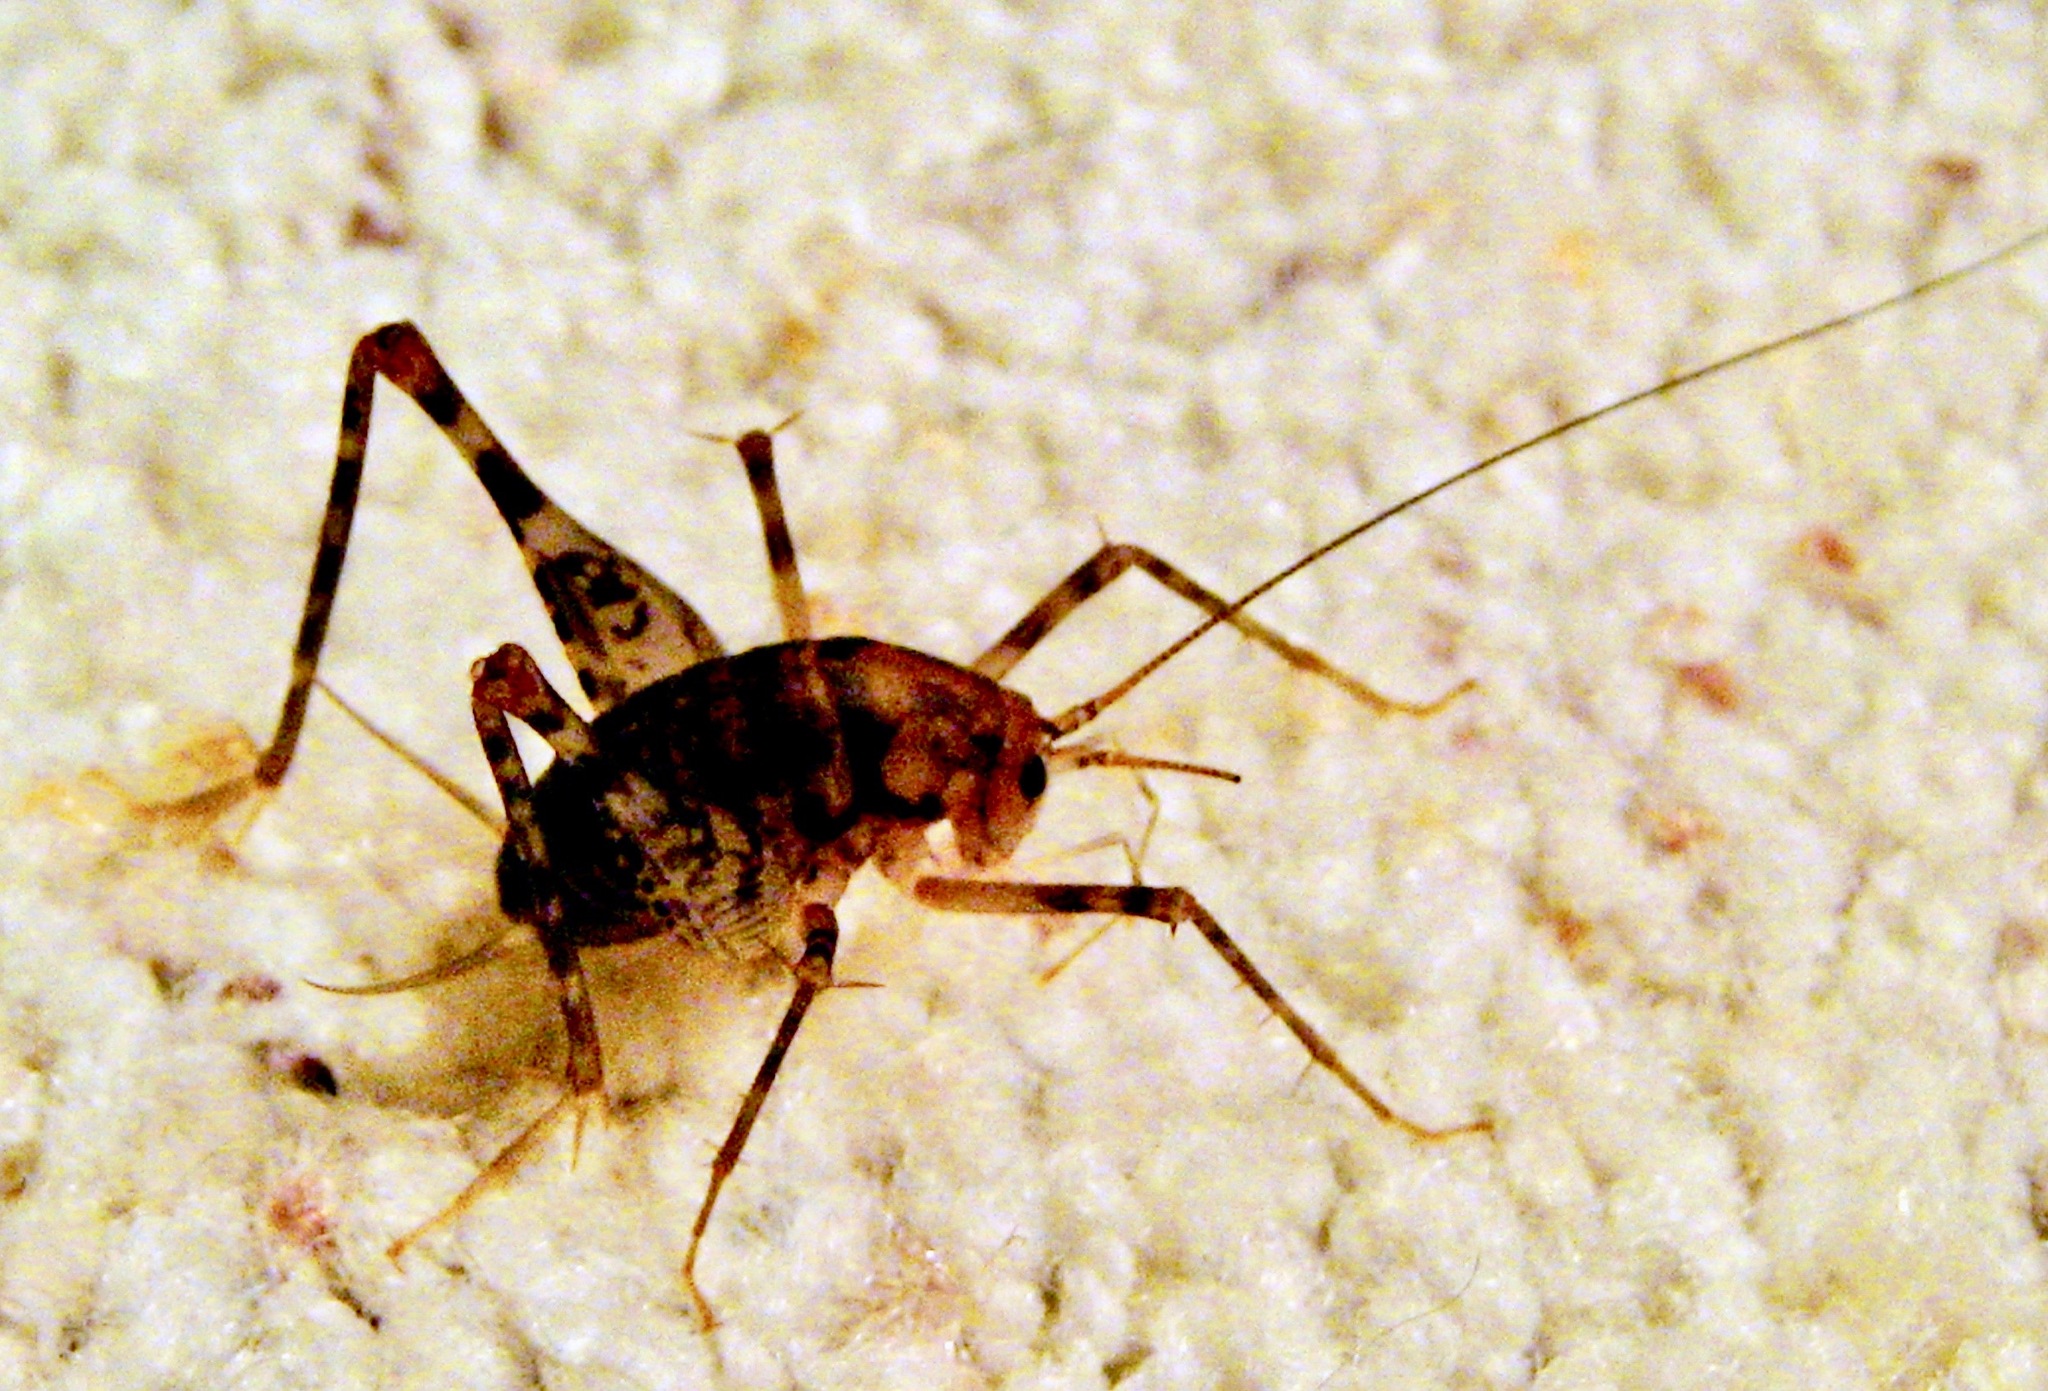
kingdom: Animalia
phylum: Arthropoda
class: Insecta
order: Orthoptera
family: Rhaphidophoridae
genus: Tachycines
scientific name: Tachycines asynamorus
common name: Greenhouse camel cricket
